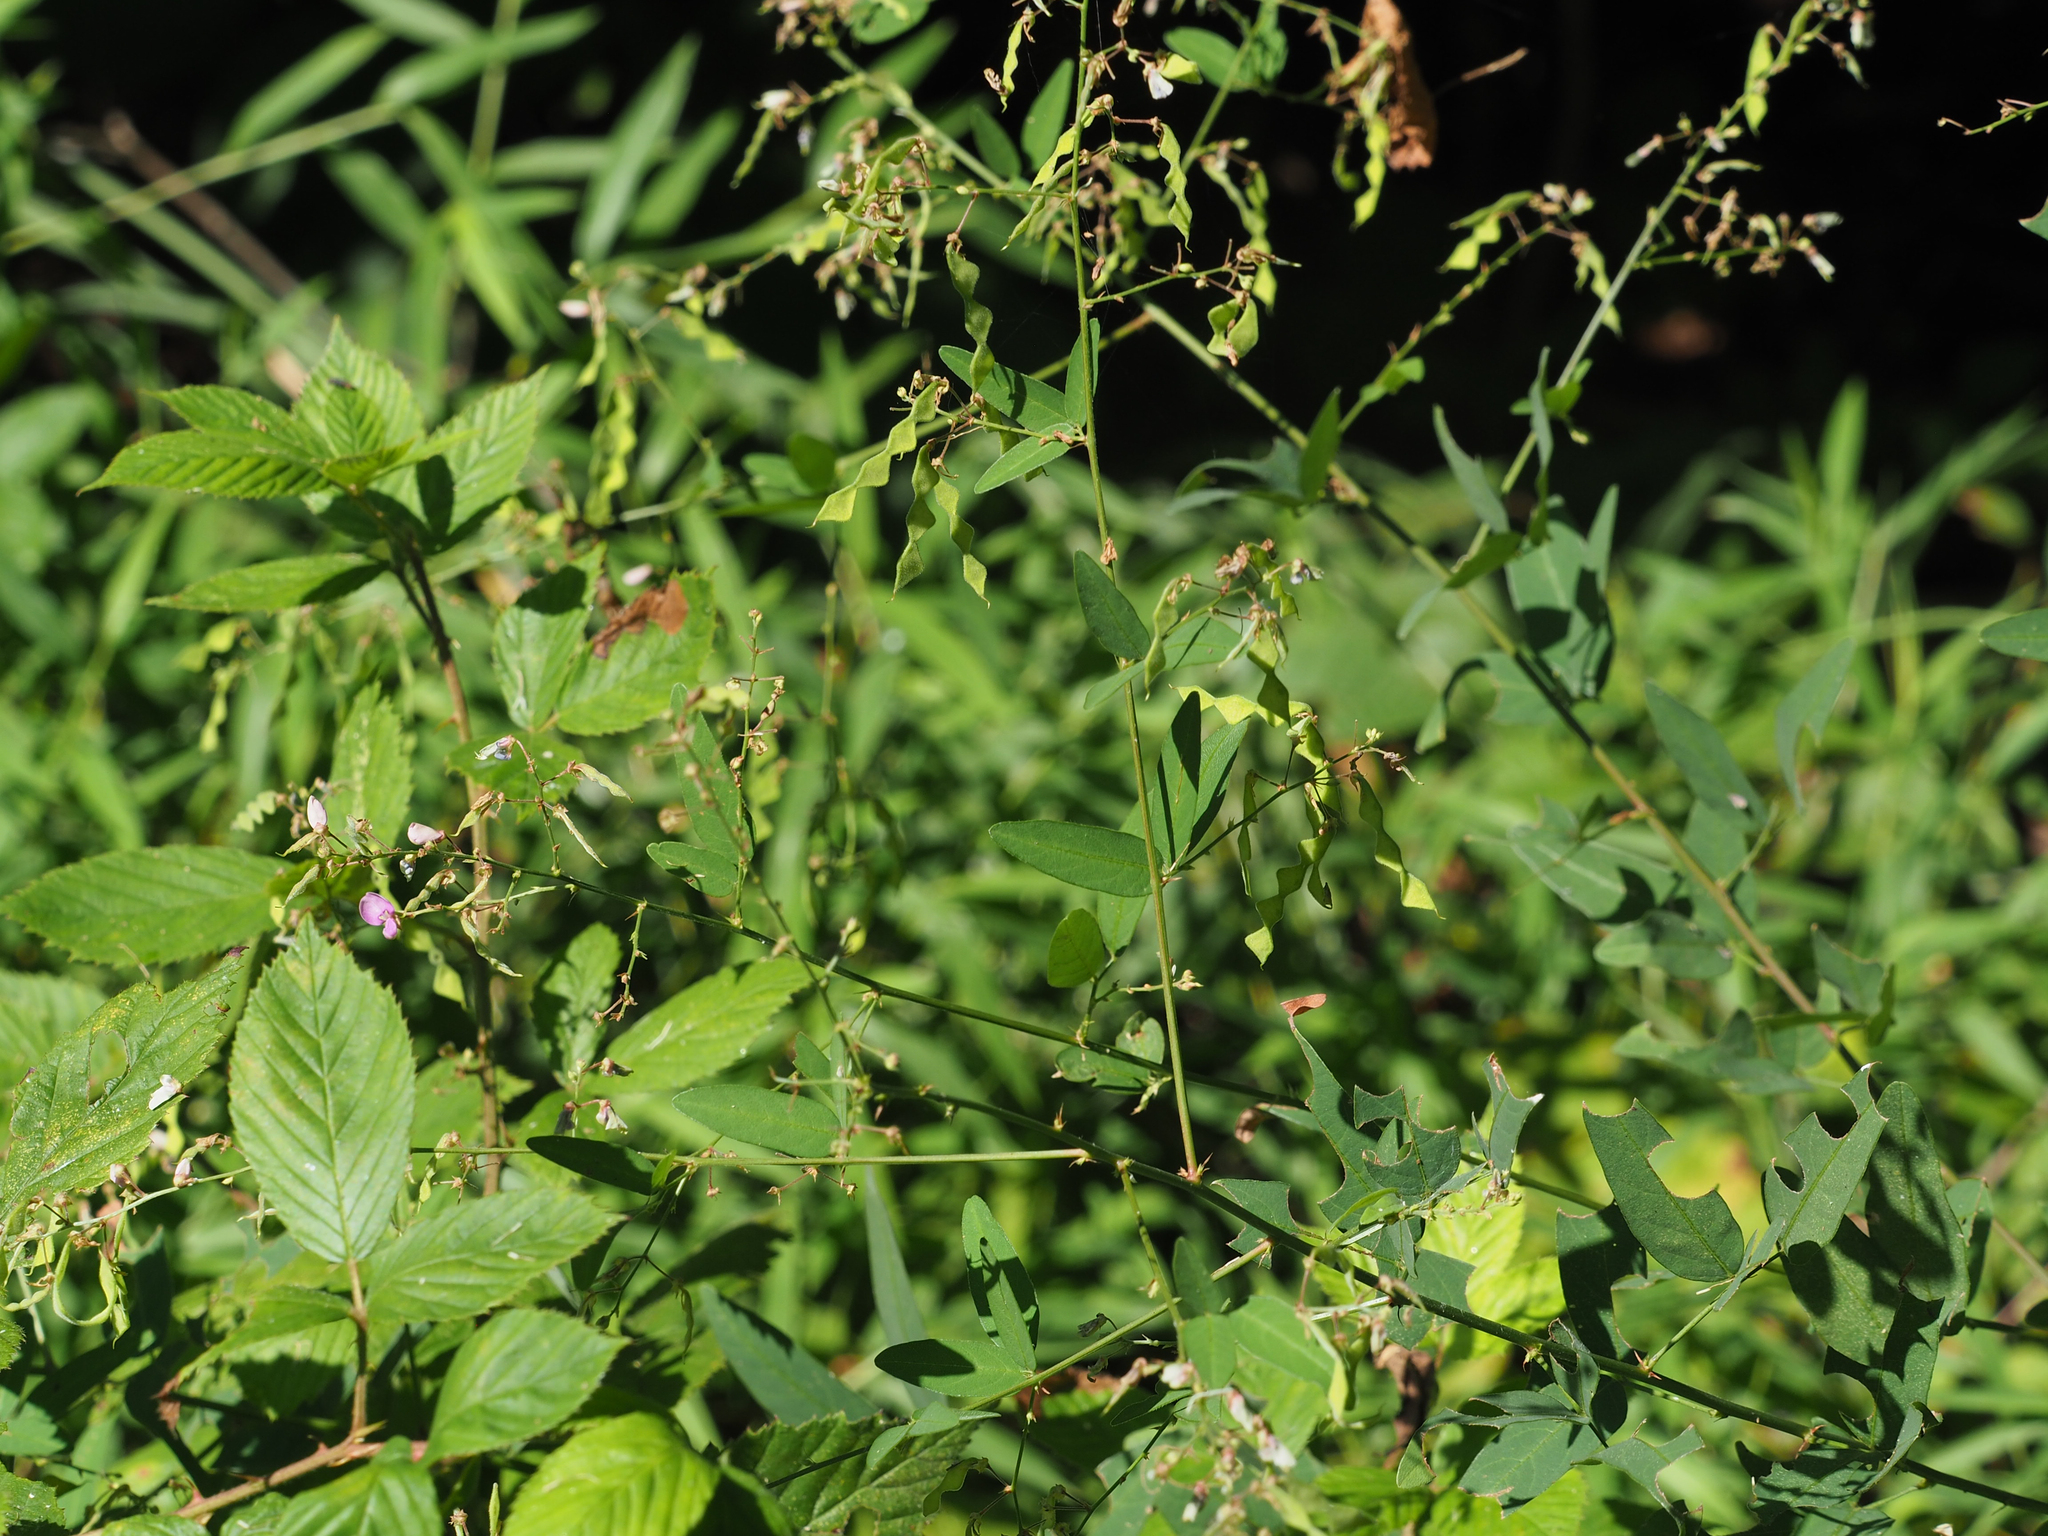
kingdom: Plantae
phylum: Tracheophyta
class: Magnoliopsida
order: Fabales
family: Fabaceae
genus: Desmodium
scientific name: Desmodium paniculatum
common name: Panicled tick-clover
